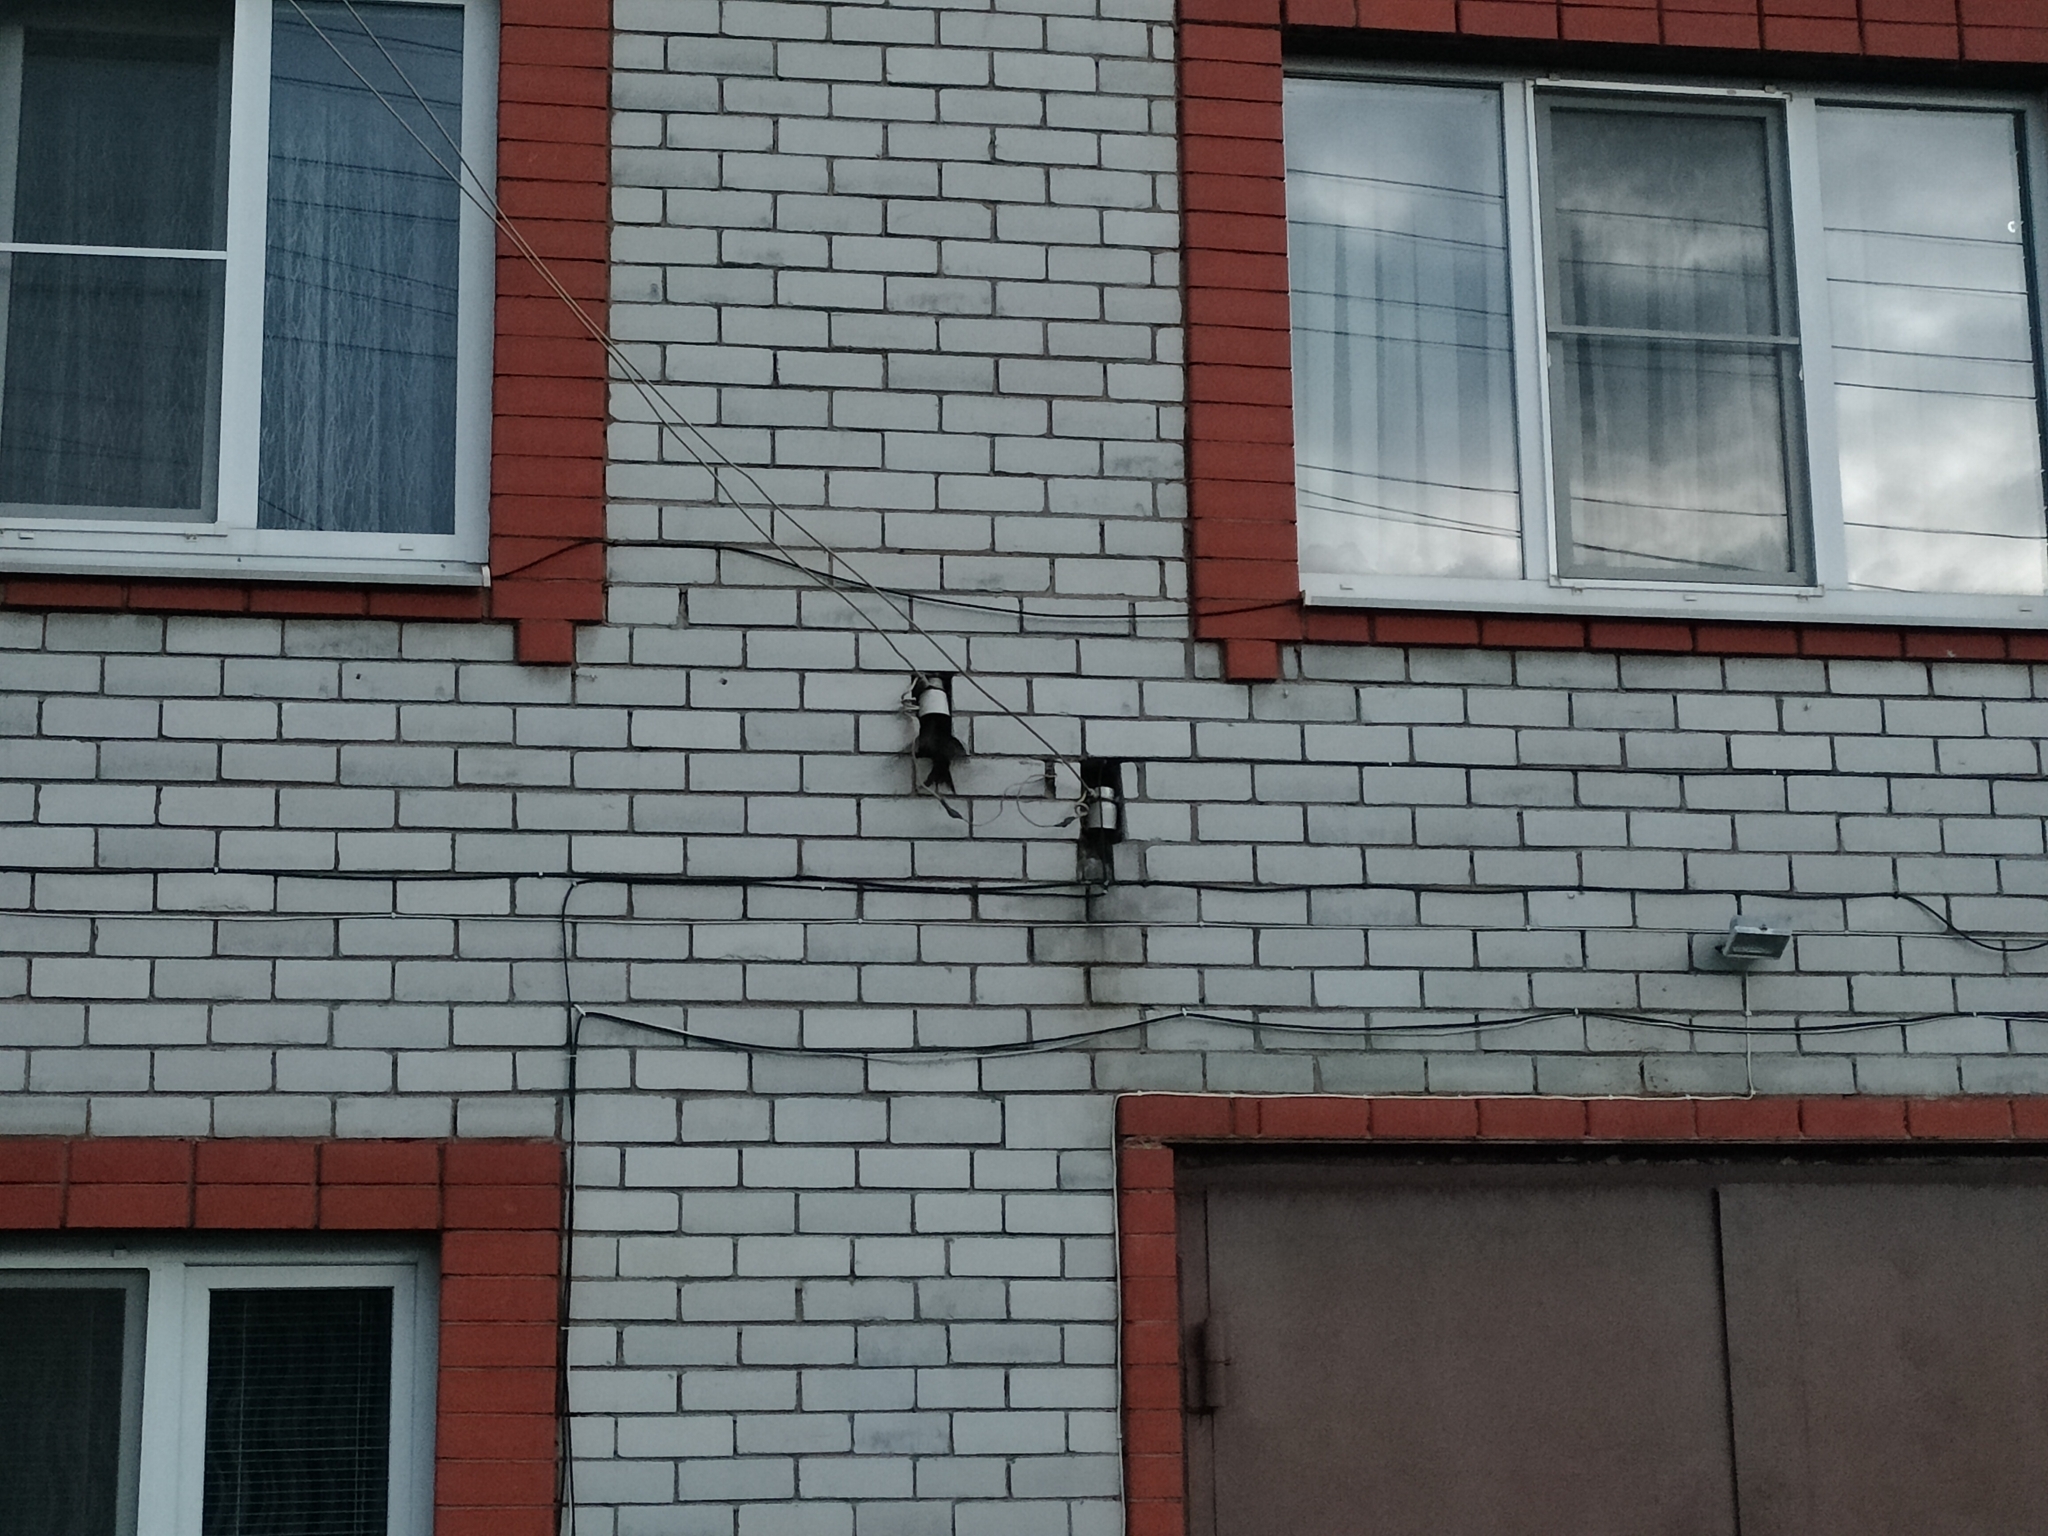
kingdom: Animalia
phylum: Chordata
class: Aves
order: Apodiformes
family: Apodidae
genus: Apus
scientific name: Apus apus
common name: Common swift
